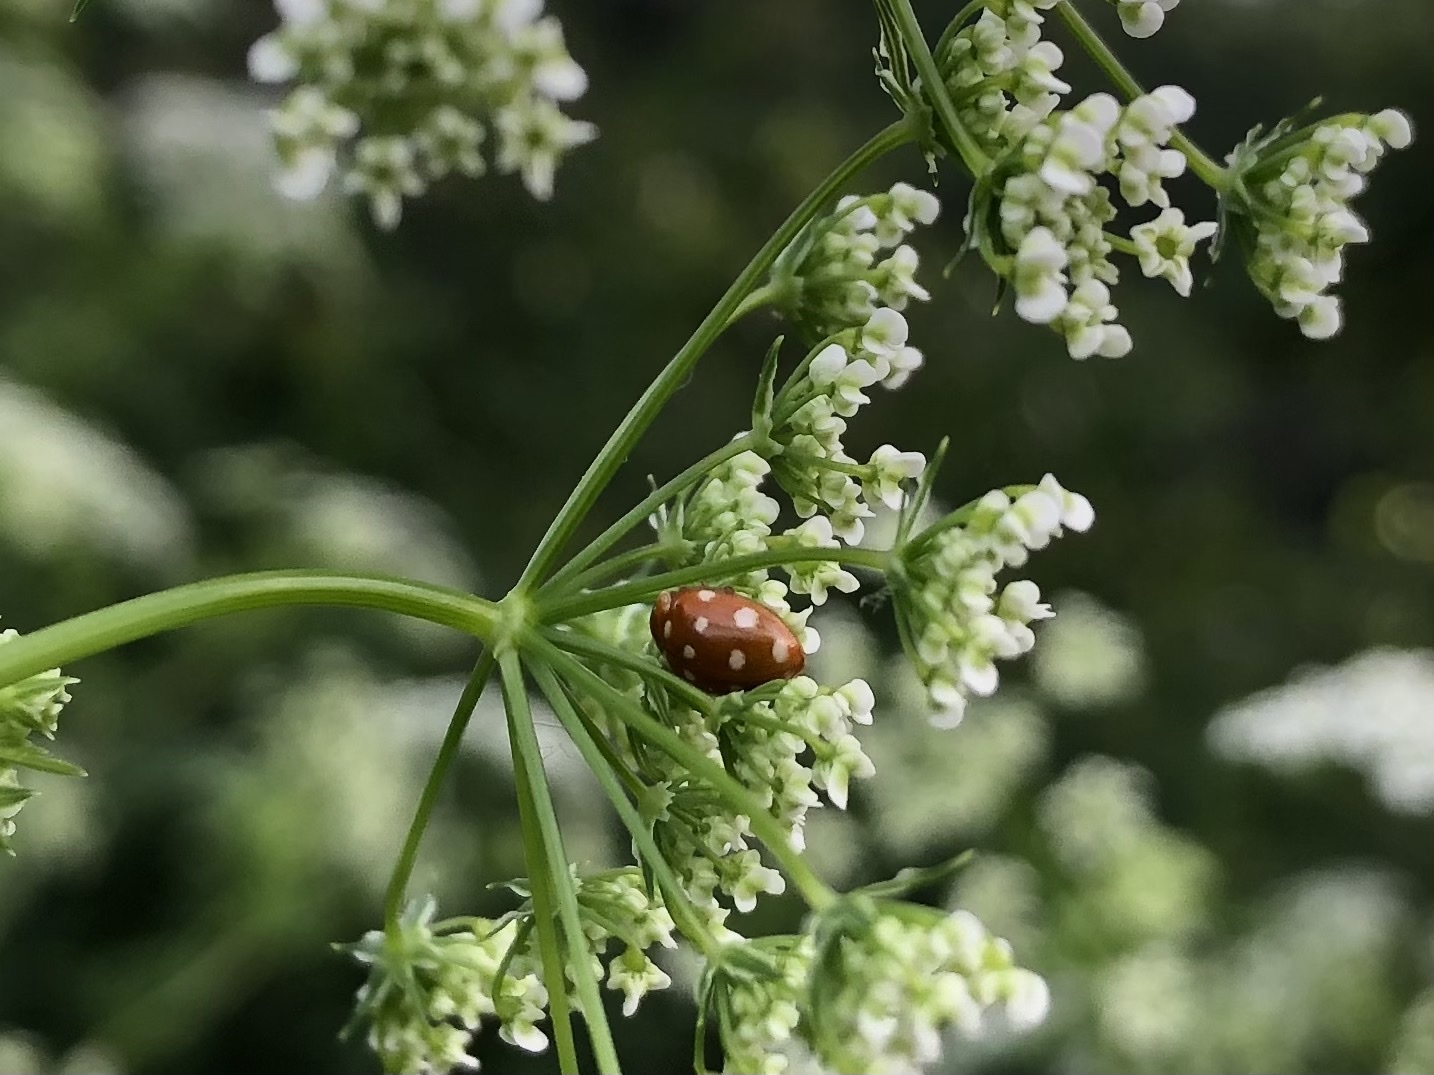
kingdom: Animalia
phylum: Arthropoda
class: Insecta
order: Coleoptera
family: Coccinellidae
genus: Calvia
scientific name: Calvia quatuordecimguttata
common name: Cream-spot ladybird
